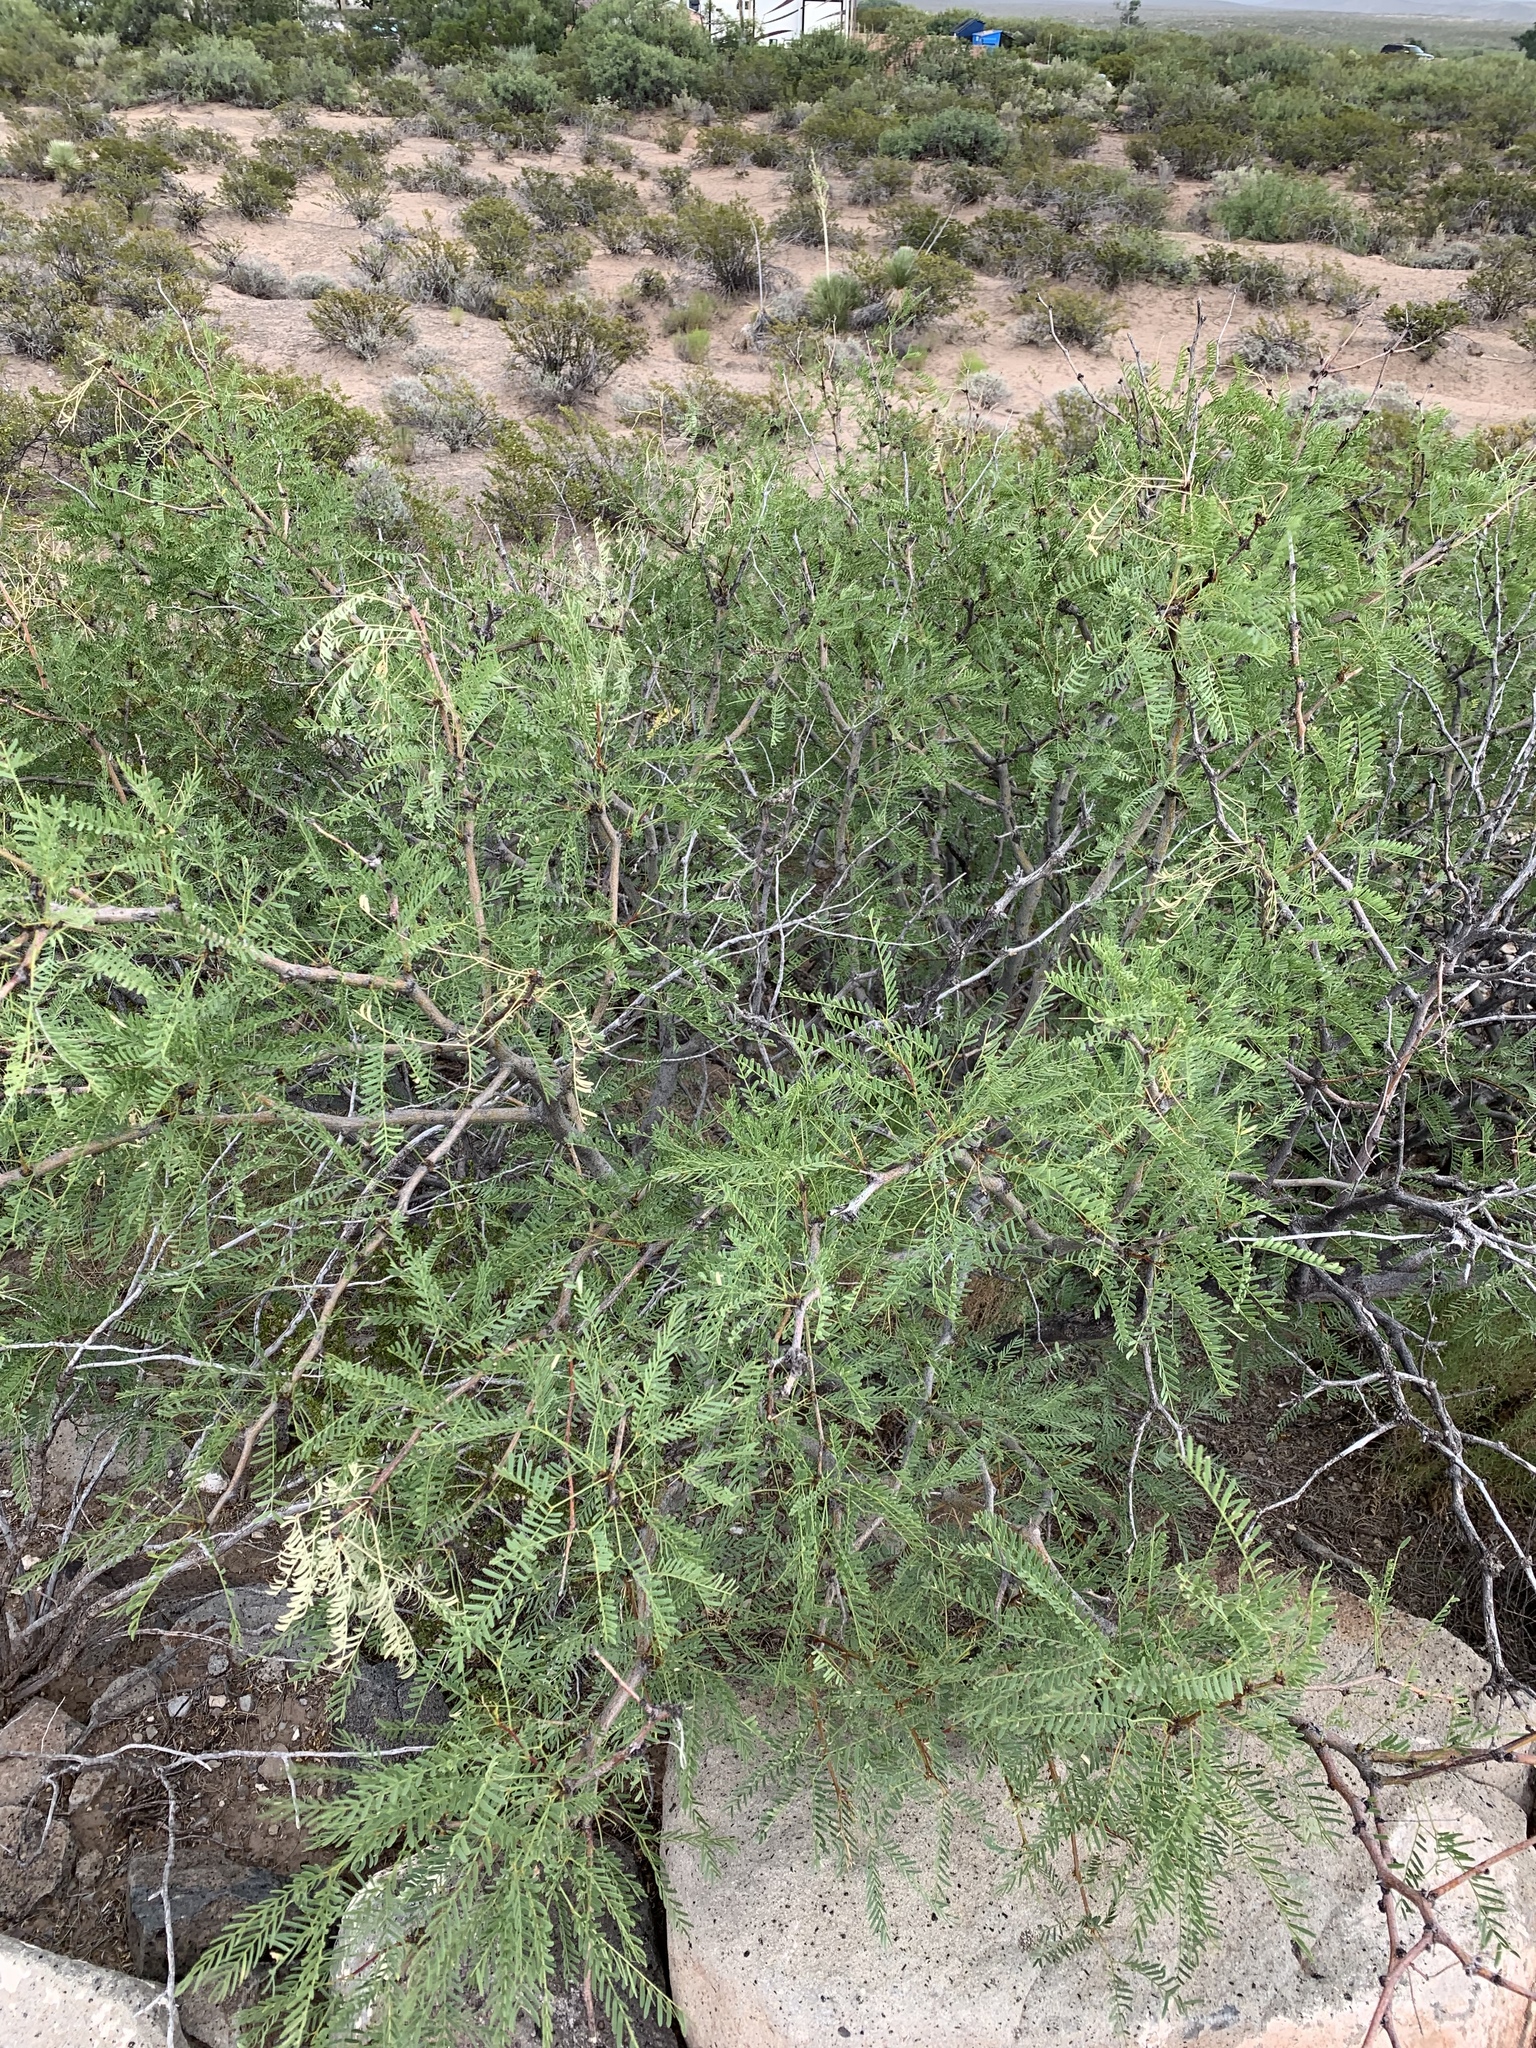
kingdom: Plantae
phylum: Tracheophyta
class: Magnoliopsida
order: Fabales
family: Fabaceae
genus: Prosopis
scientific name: Prosopis glandulosa
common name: Honey mesquite
